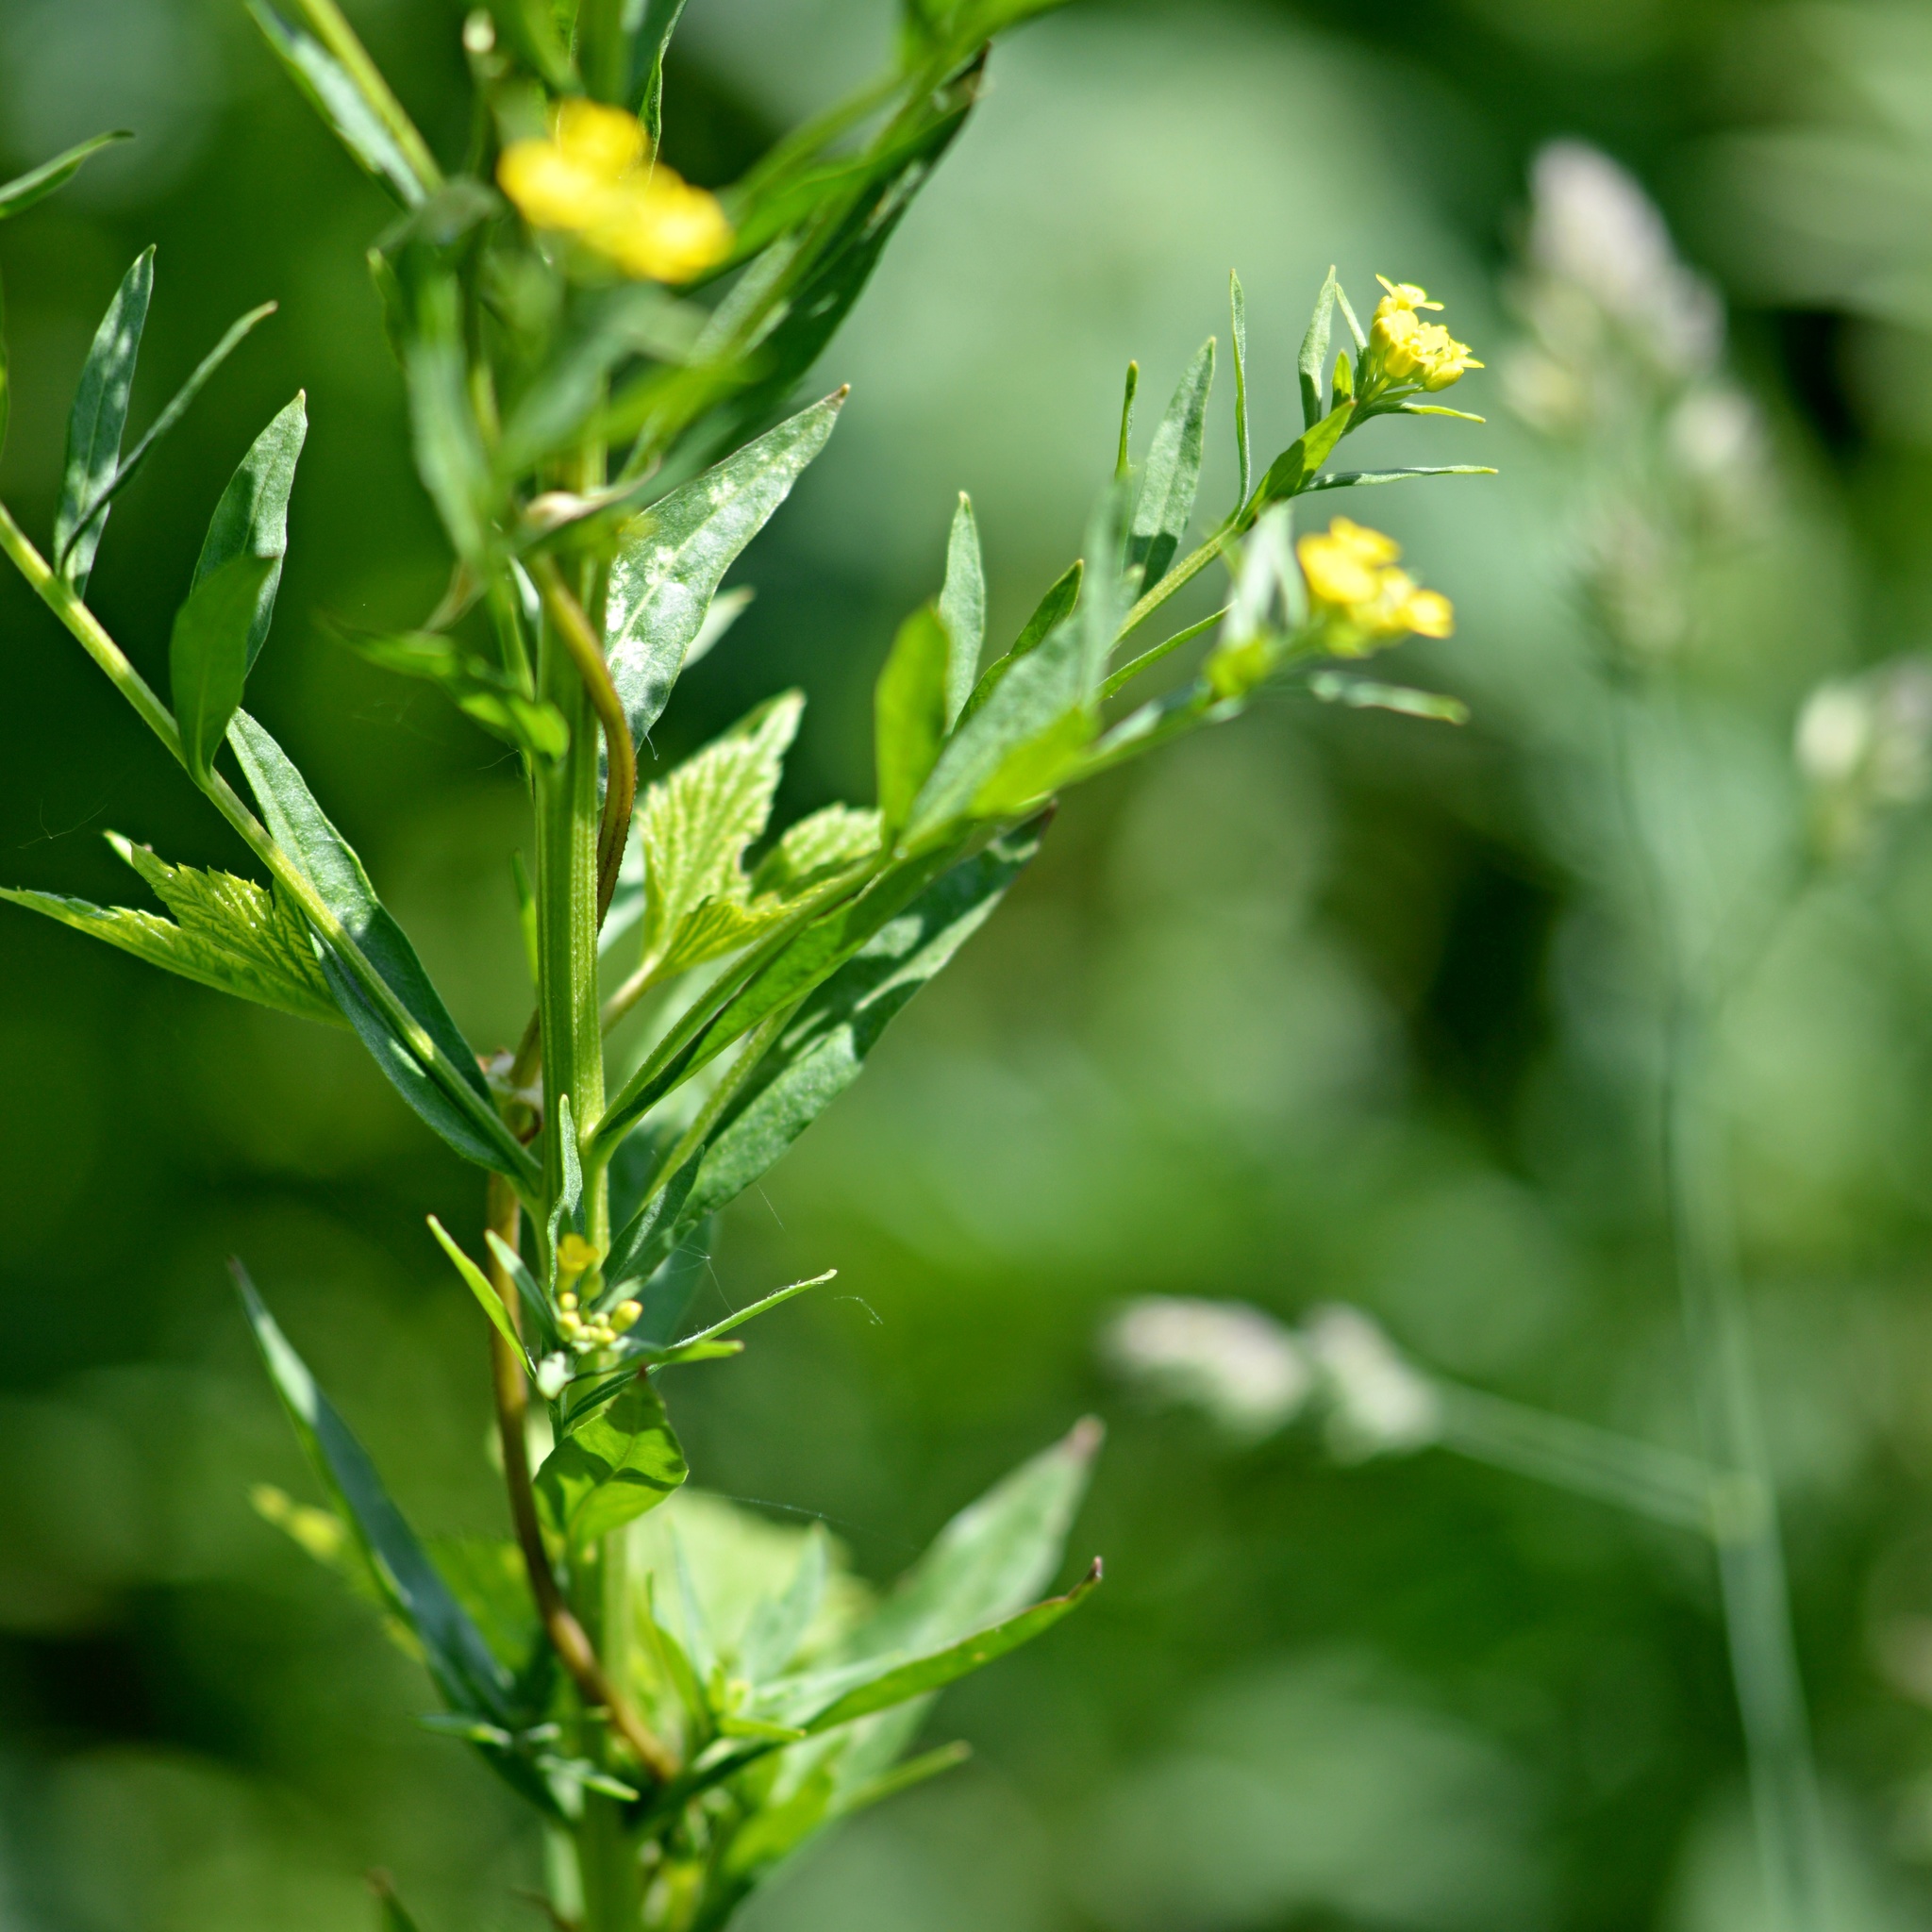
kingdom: Plantae
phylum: Tracheophyta
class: Magnoliopsida
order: Brassicales
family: Brassicaceae
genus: Erysimum
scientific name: Erysimum cheiranthoides
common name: Treacle mustard
